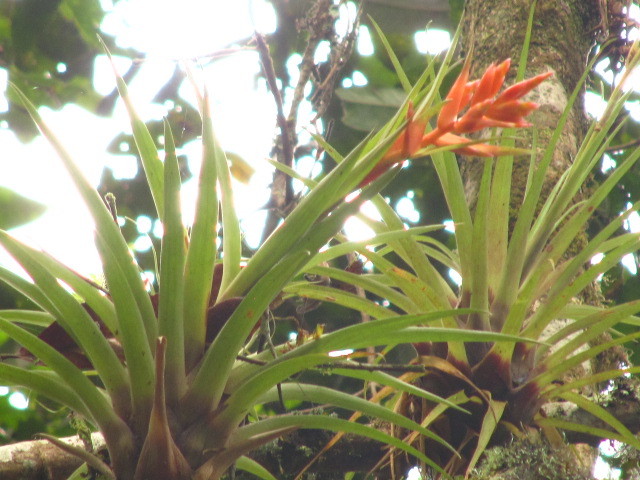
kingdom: Plantae
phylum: Tracheophyta
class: Liliopsida
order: Poales
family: Bromeliaceae
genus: Tillandsia
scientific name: Tillandsia archeri
